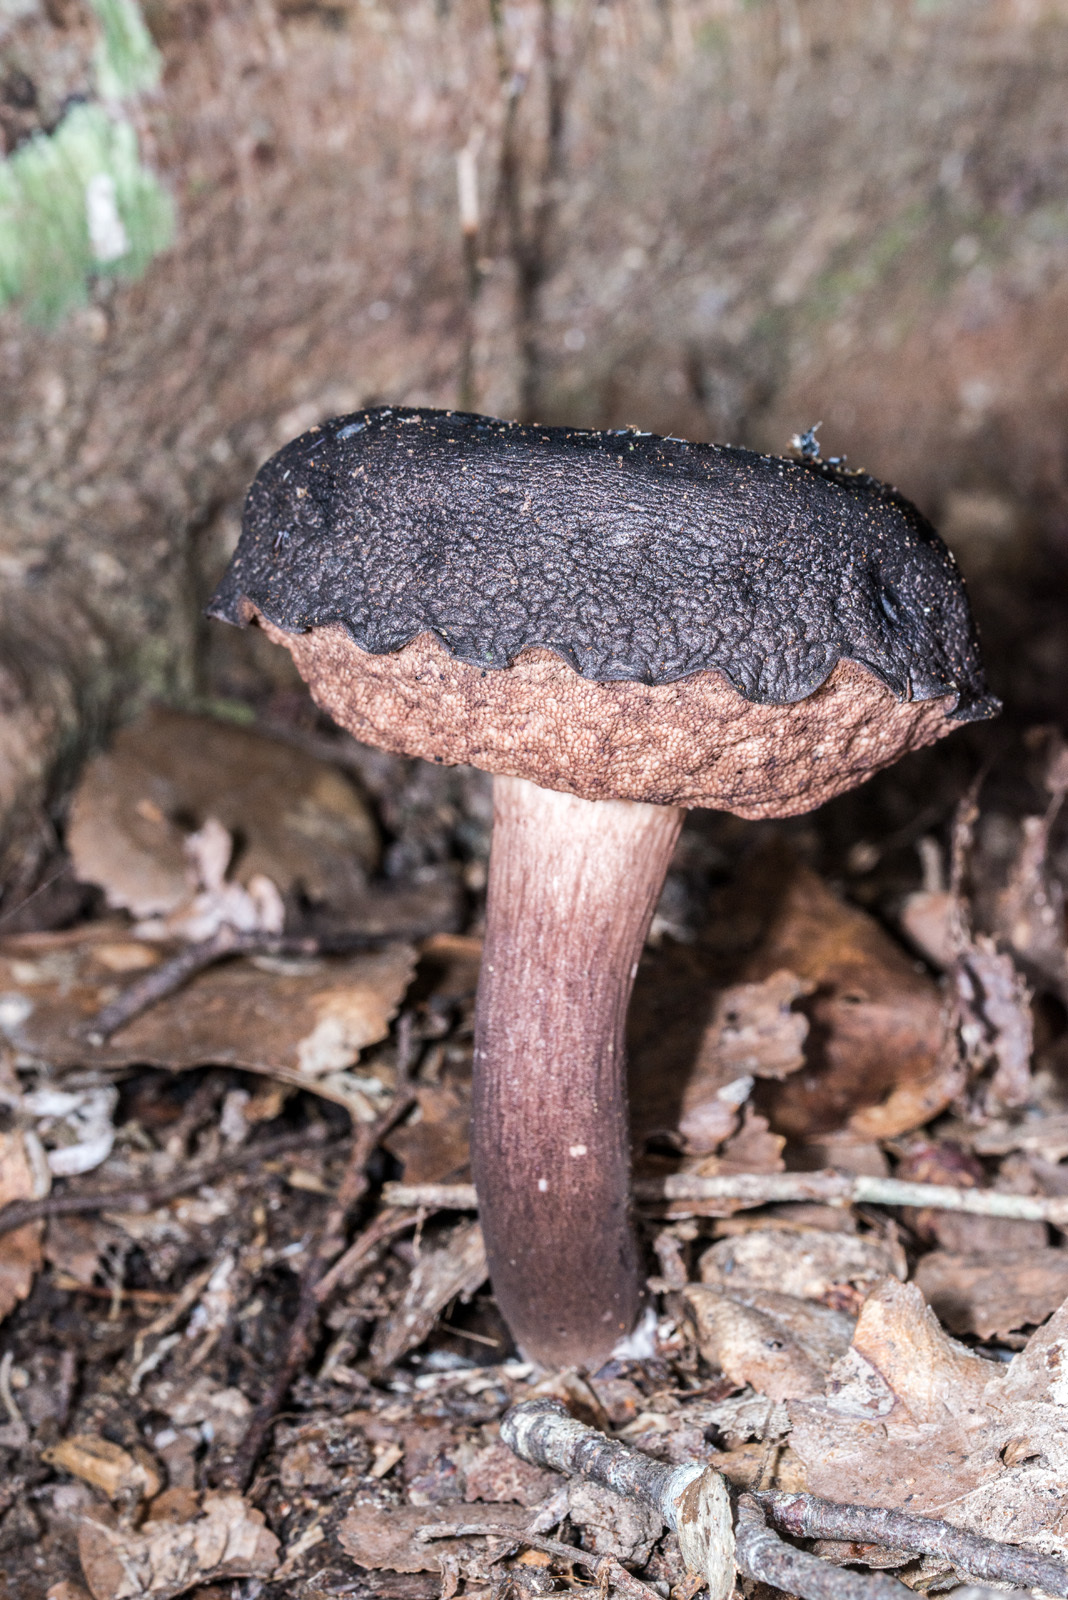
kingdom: Fungi
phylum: Basidiomycota
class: Agaricomycetes
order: Boletales
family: Boletaceae
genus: Porphyrellus
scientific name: Porphyrellus formosus
